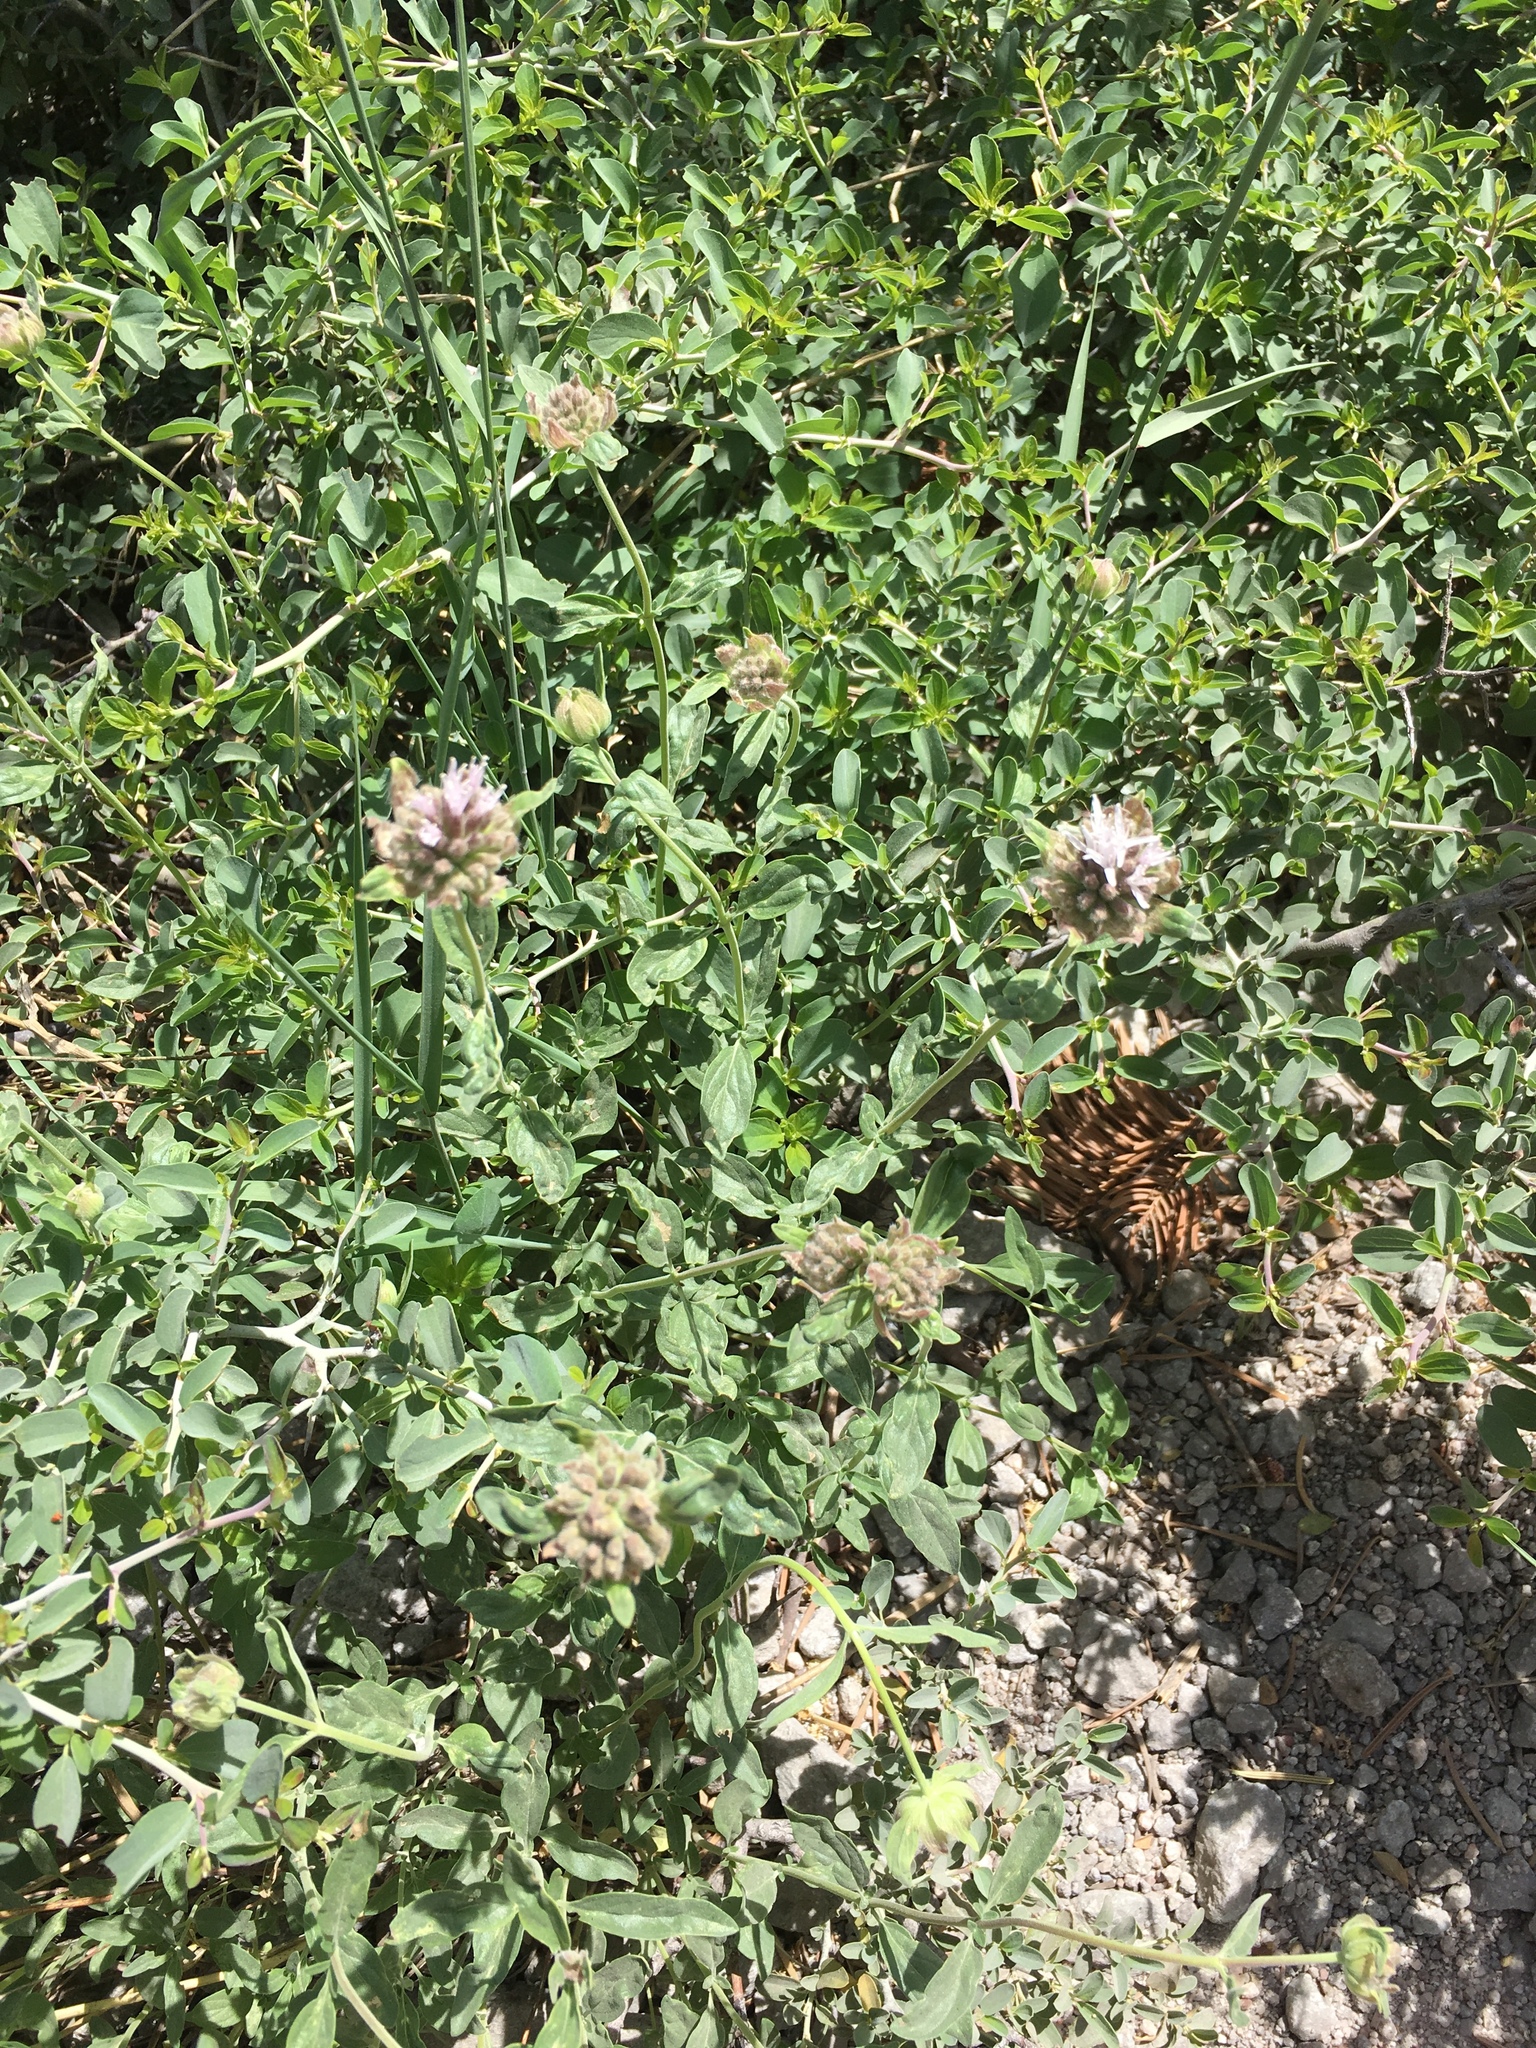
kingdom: Plantae
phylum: Tracheophyta
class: Magnoliopsida
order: Lamiales
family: Lamiaceae
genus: Monardella
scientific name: Monardella odoratissima
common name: Pacific monardella
